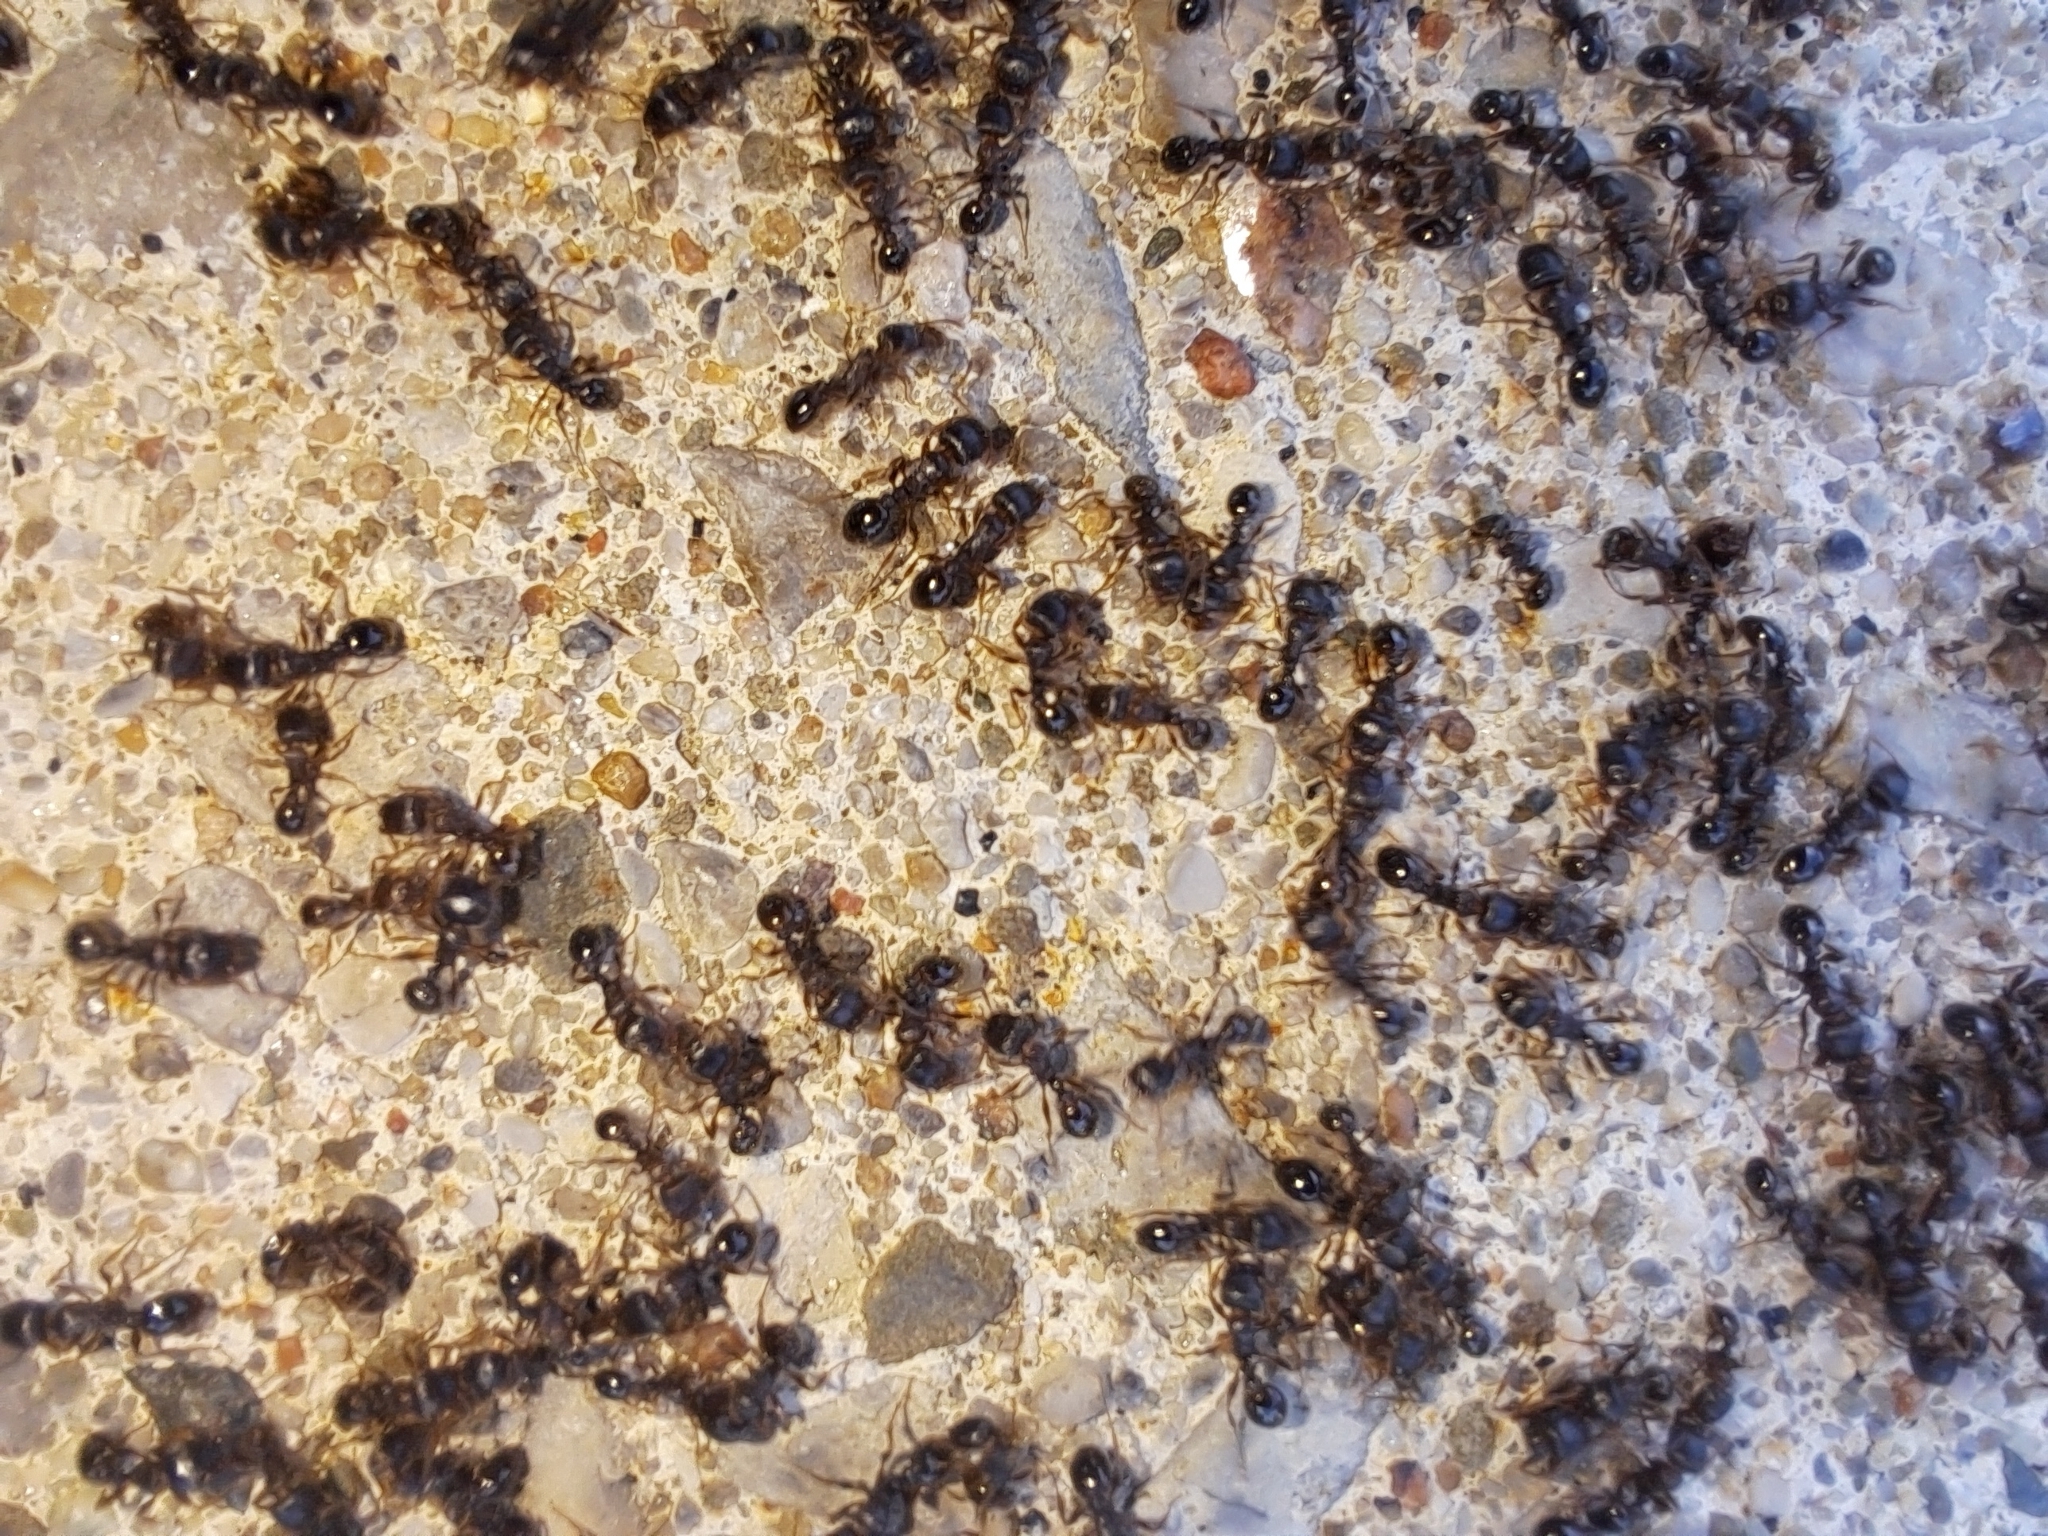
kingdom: Animalia
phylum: Arthropoda
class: Insecta
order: Hymenoptera
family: Formicidae
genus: Tetramorium
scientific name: Tetramorium immigrans
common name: Pavement ant
